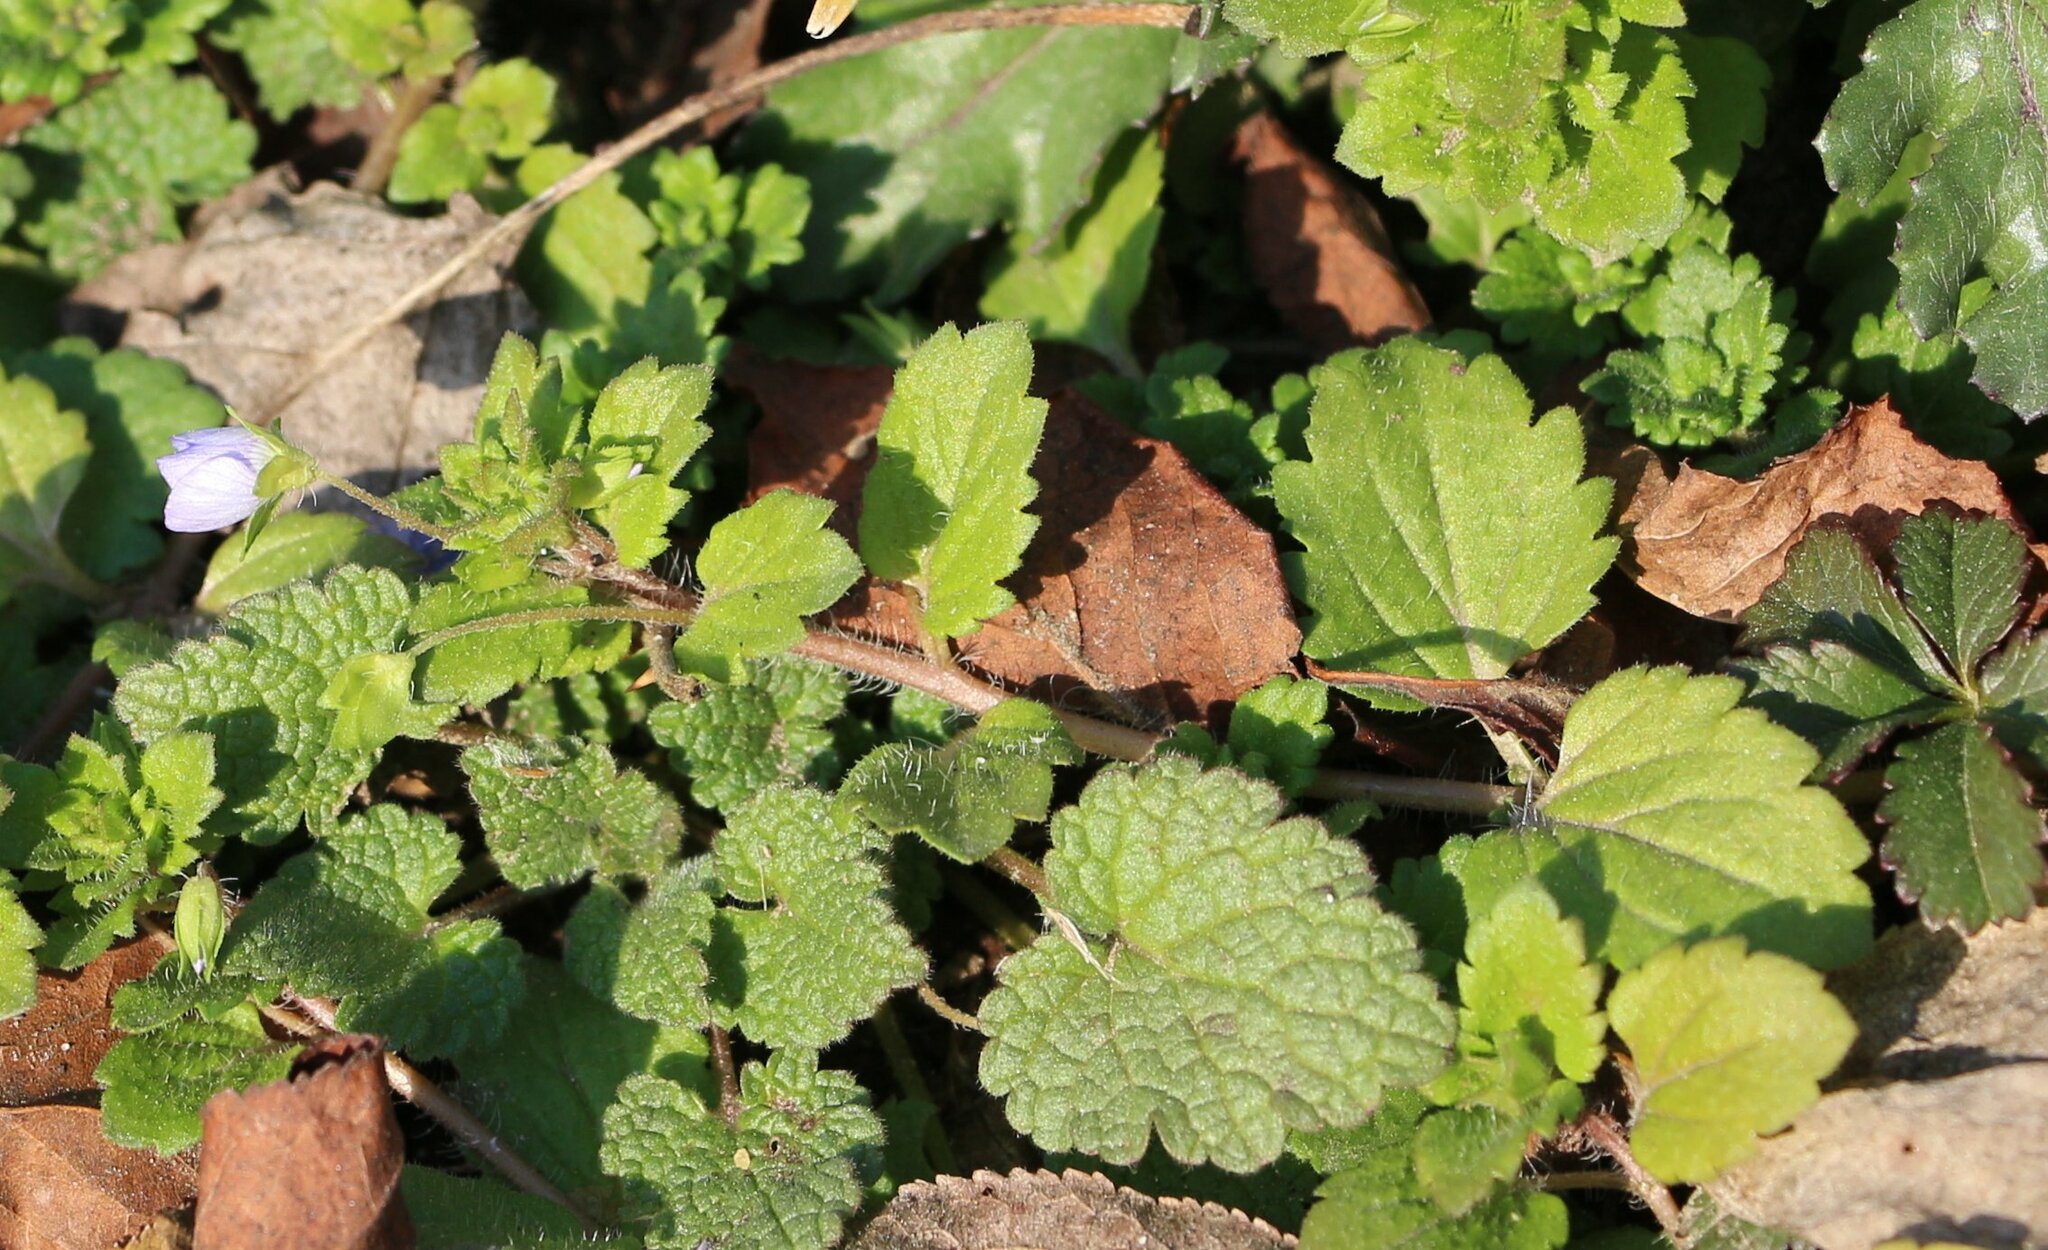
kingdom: Plantae
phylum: Tracheophyta
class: Magnoliopsida
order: Lamiales
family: Plantaginaceae
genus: Veronica
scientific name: Veronica persica
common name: Common field-speedwell
